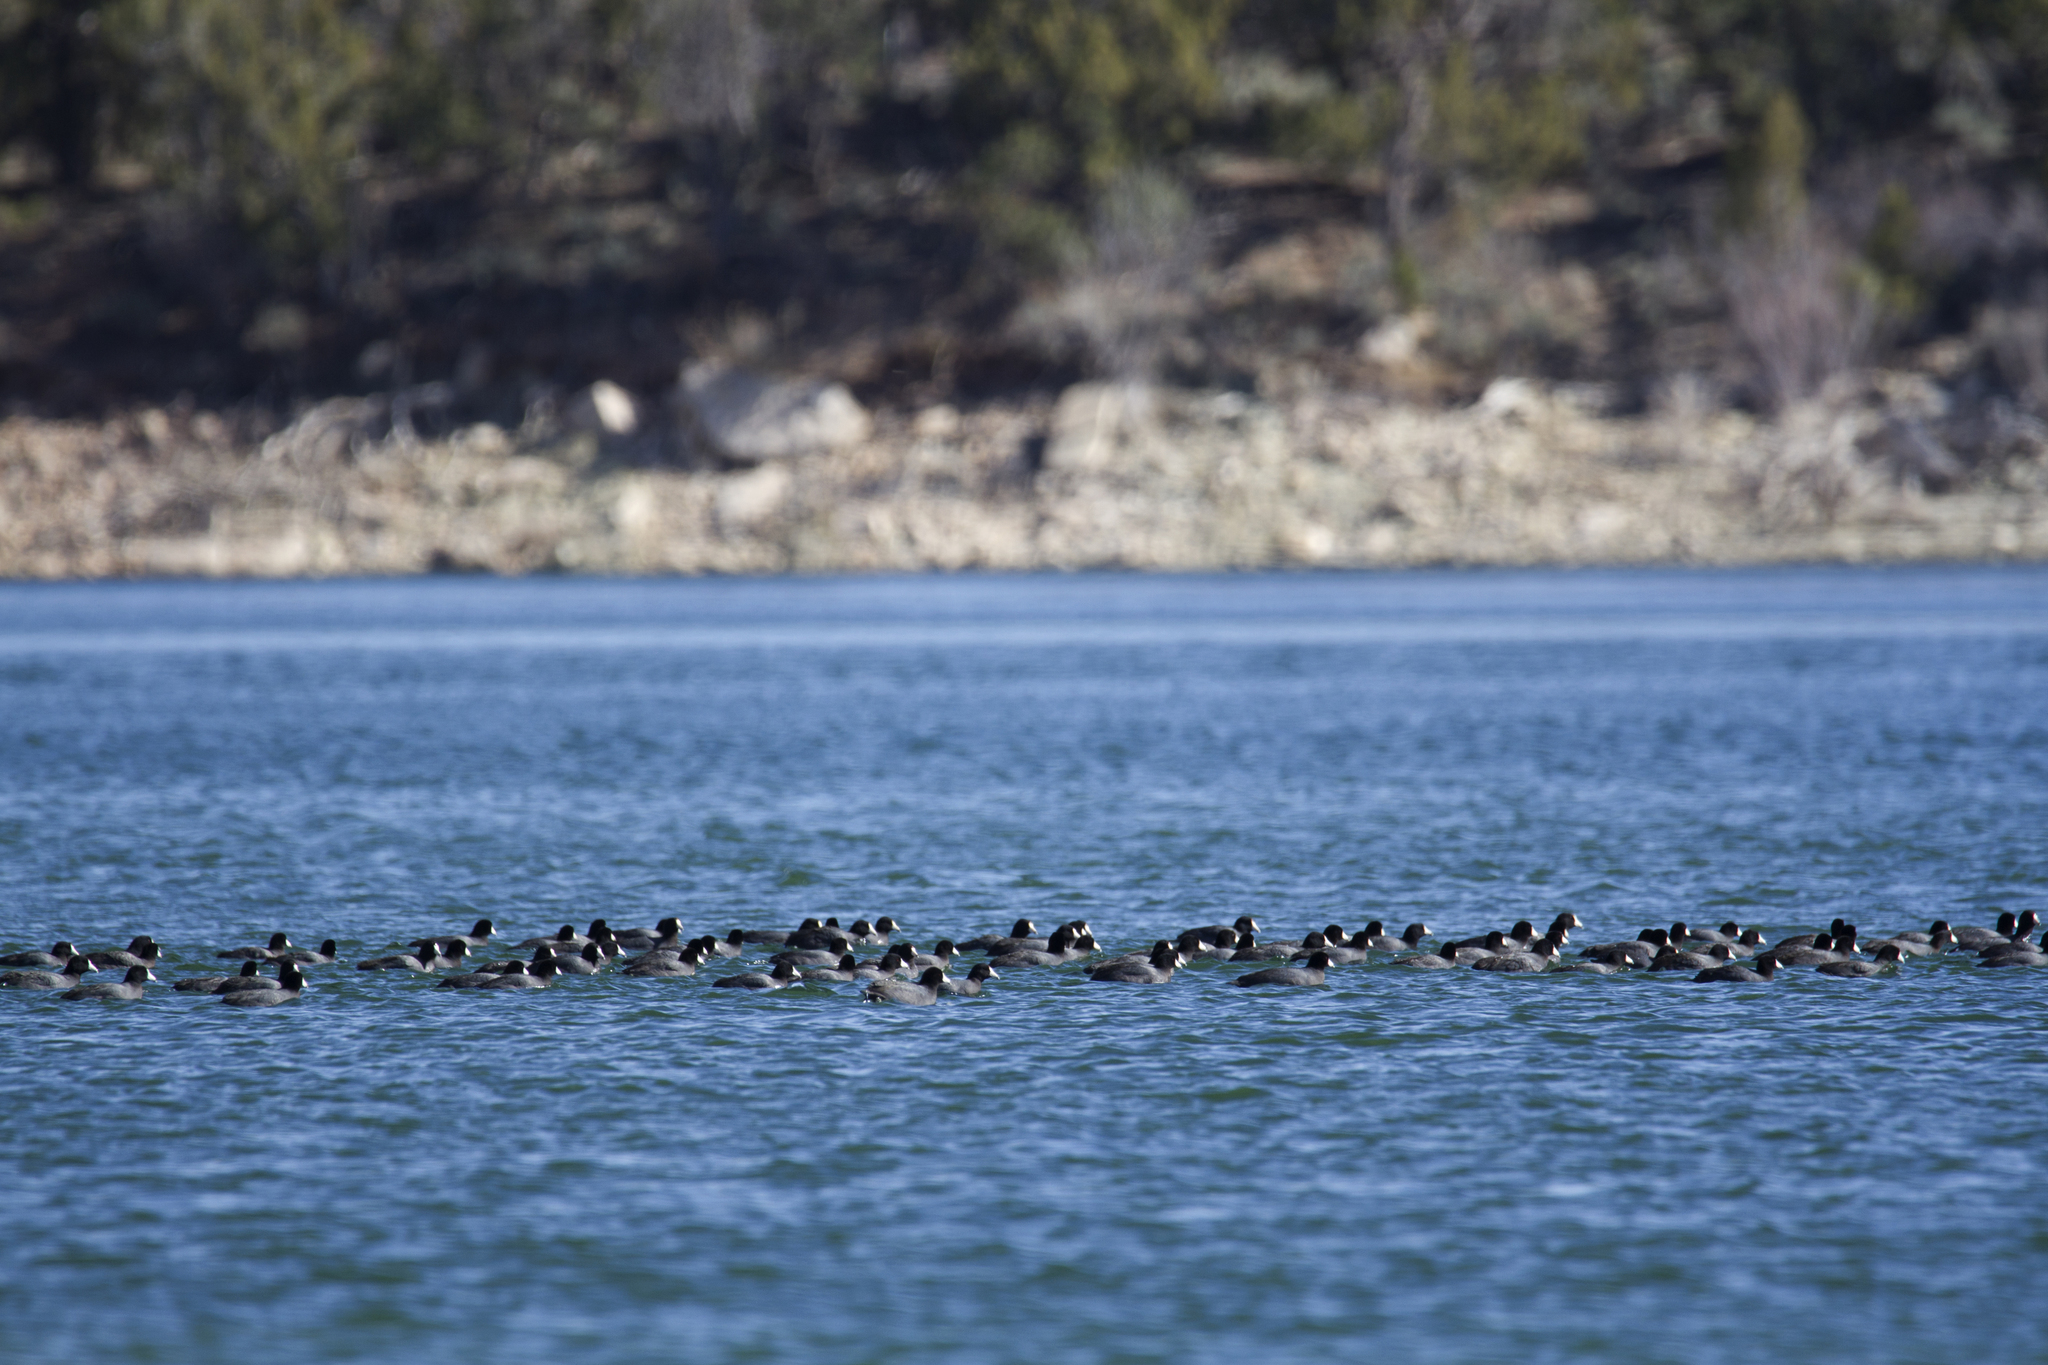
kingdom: Animalia
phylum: Chordata
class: Aves
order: Gruiformes
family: Rallidae
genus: Fulica
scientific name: Fulica americana
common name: American coot
